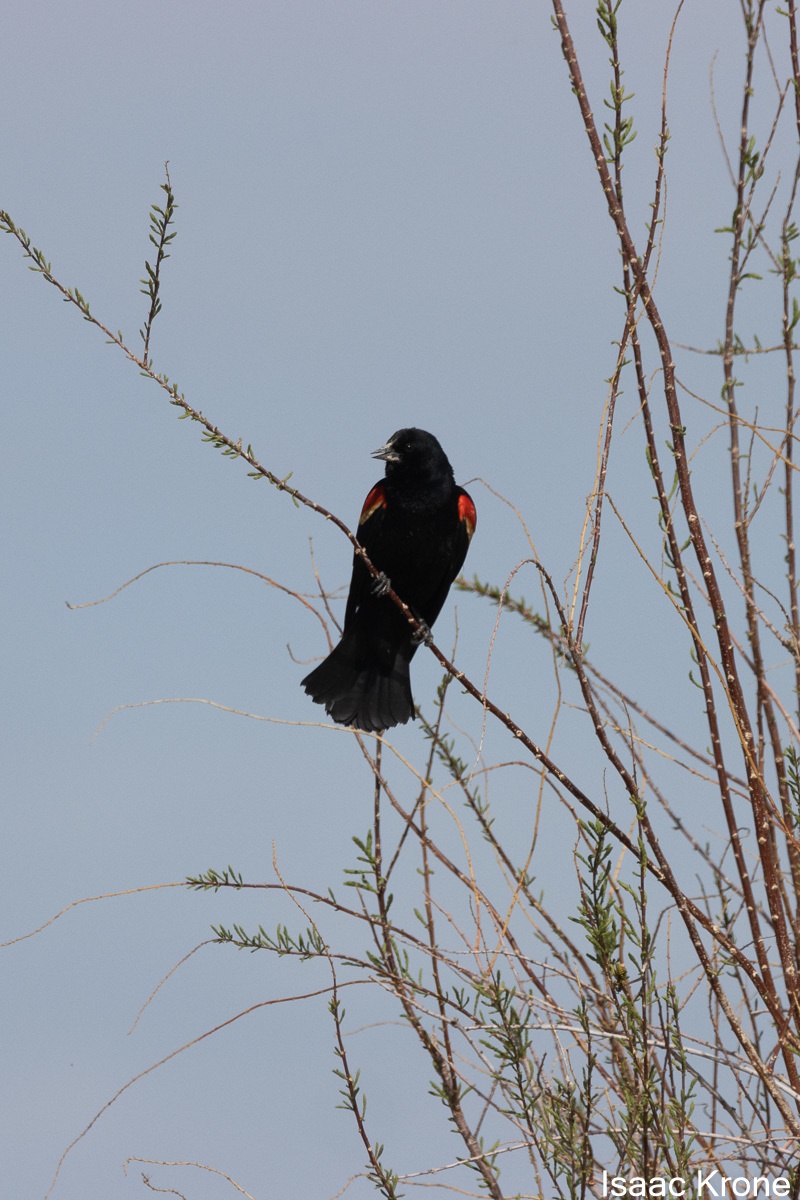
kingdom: Animalia
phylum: Chordata
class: Aves
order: Passeriformes
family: Icteridae
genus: Agelaius
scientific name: Agelaius phoeniceus
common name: Red-winged blackbird
